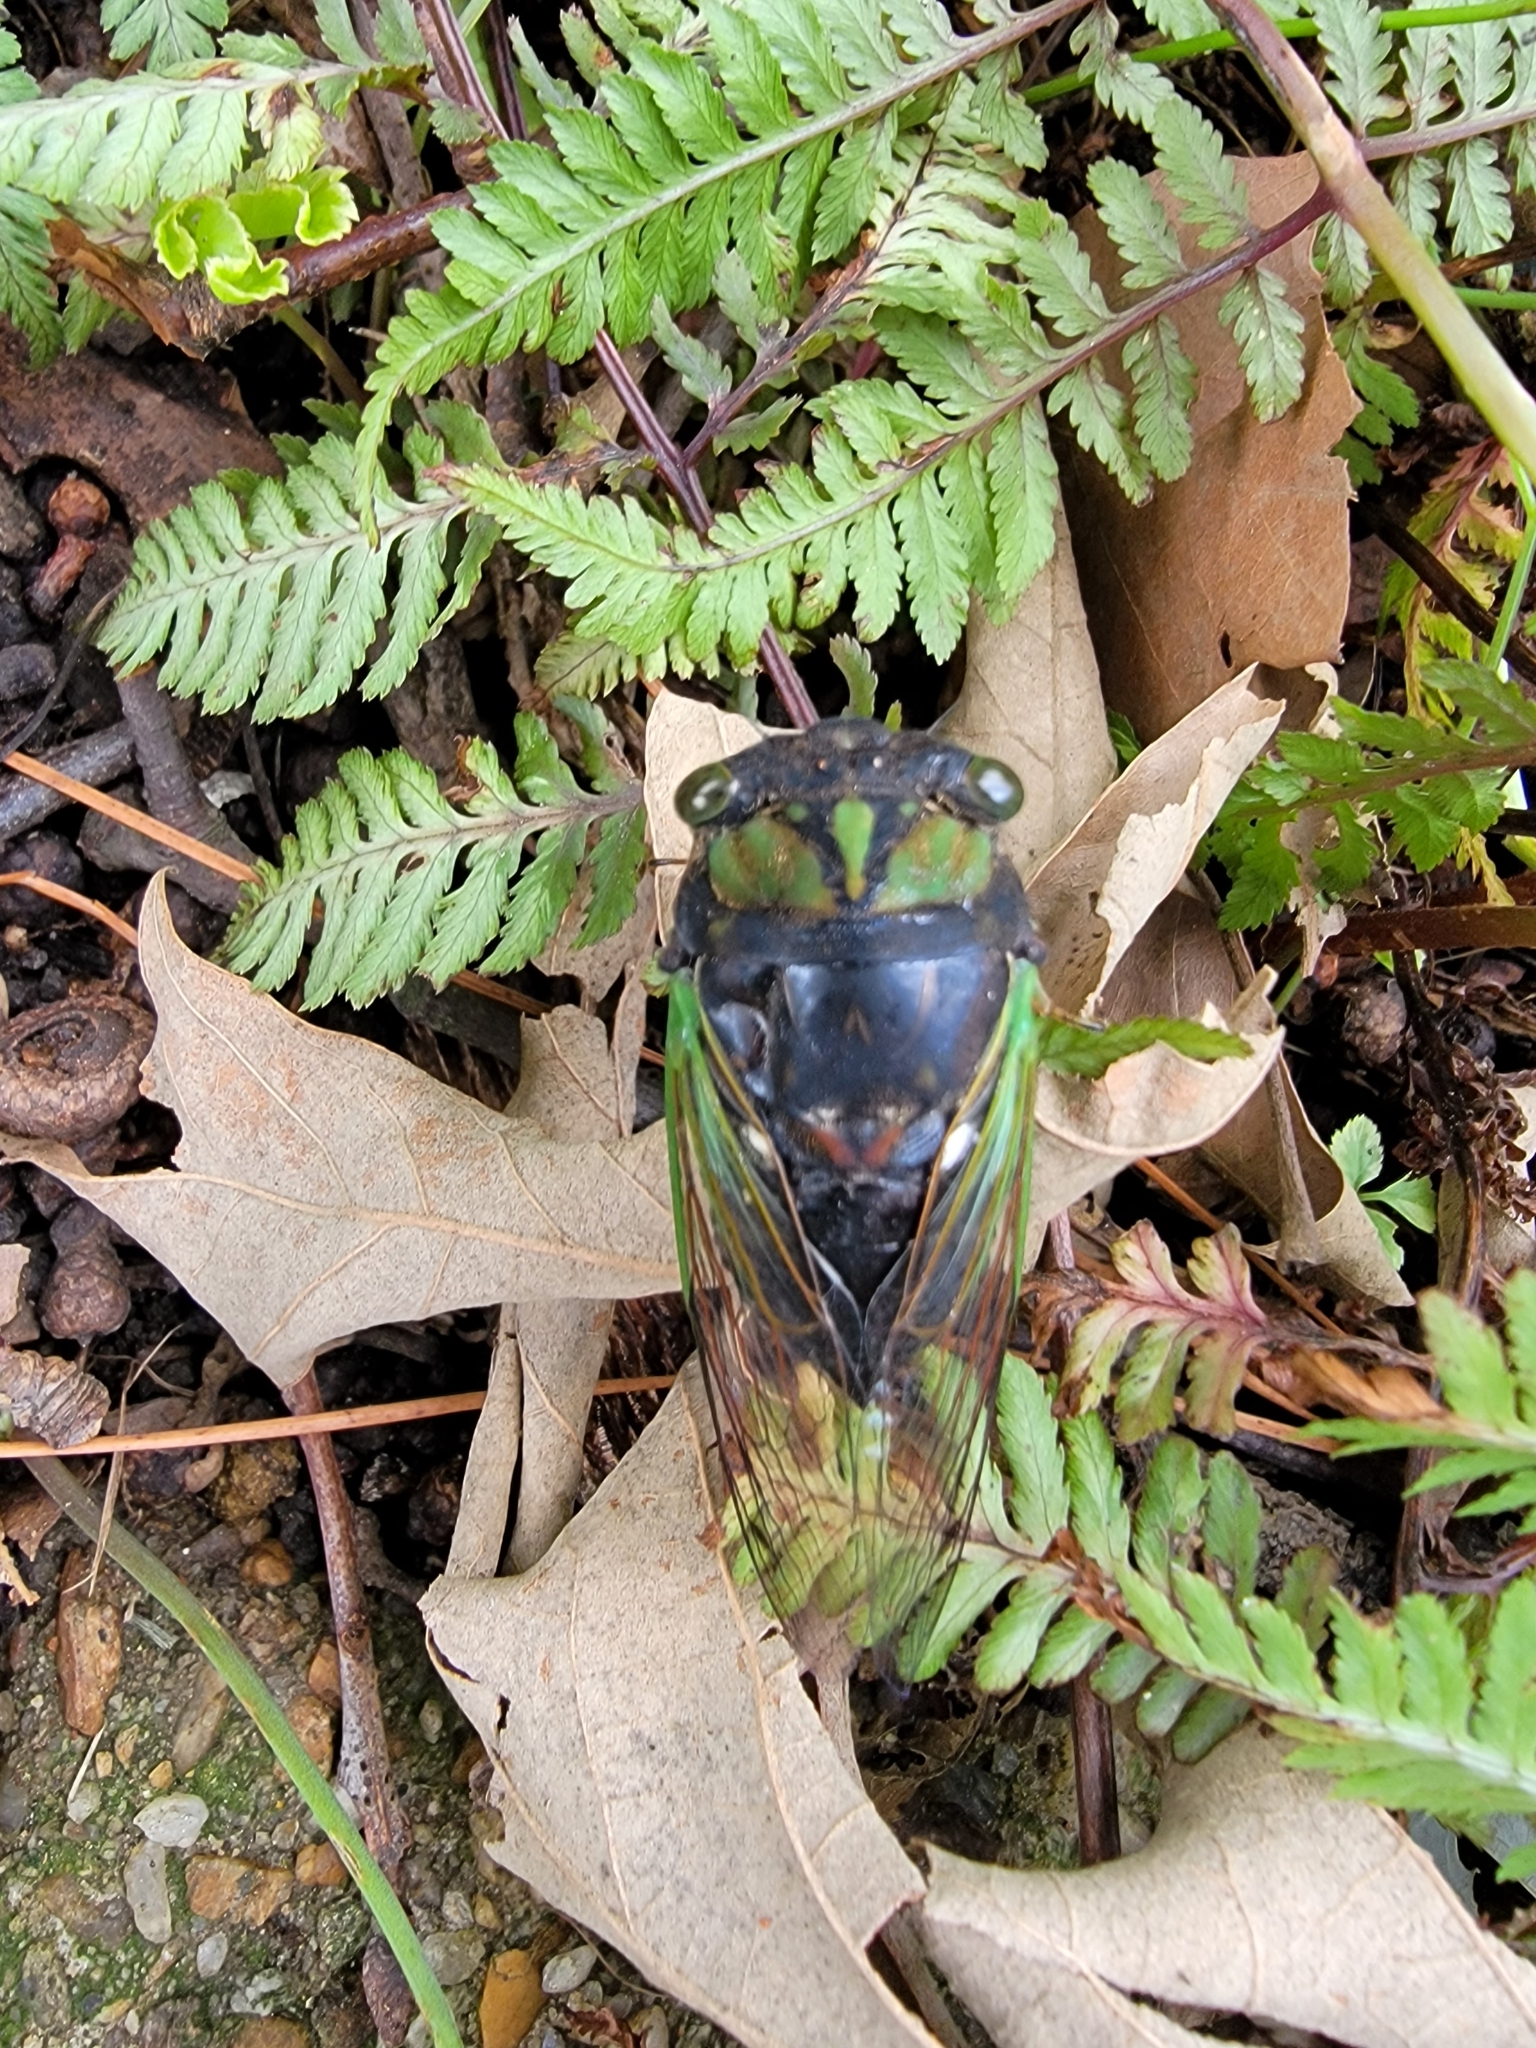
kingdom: Animalia
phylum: Arthropoda
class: Insecta
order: Hemiptera
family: Cicadidae
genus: Neotibicen
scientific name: Neotibicen tibicen
